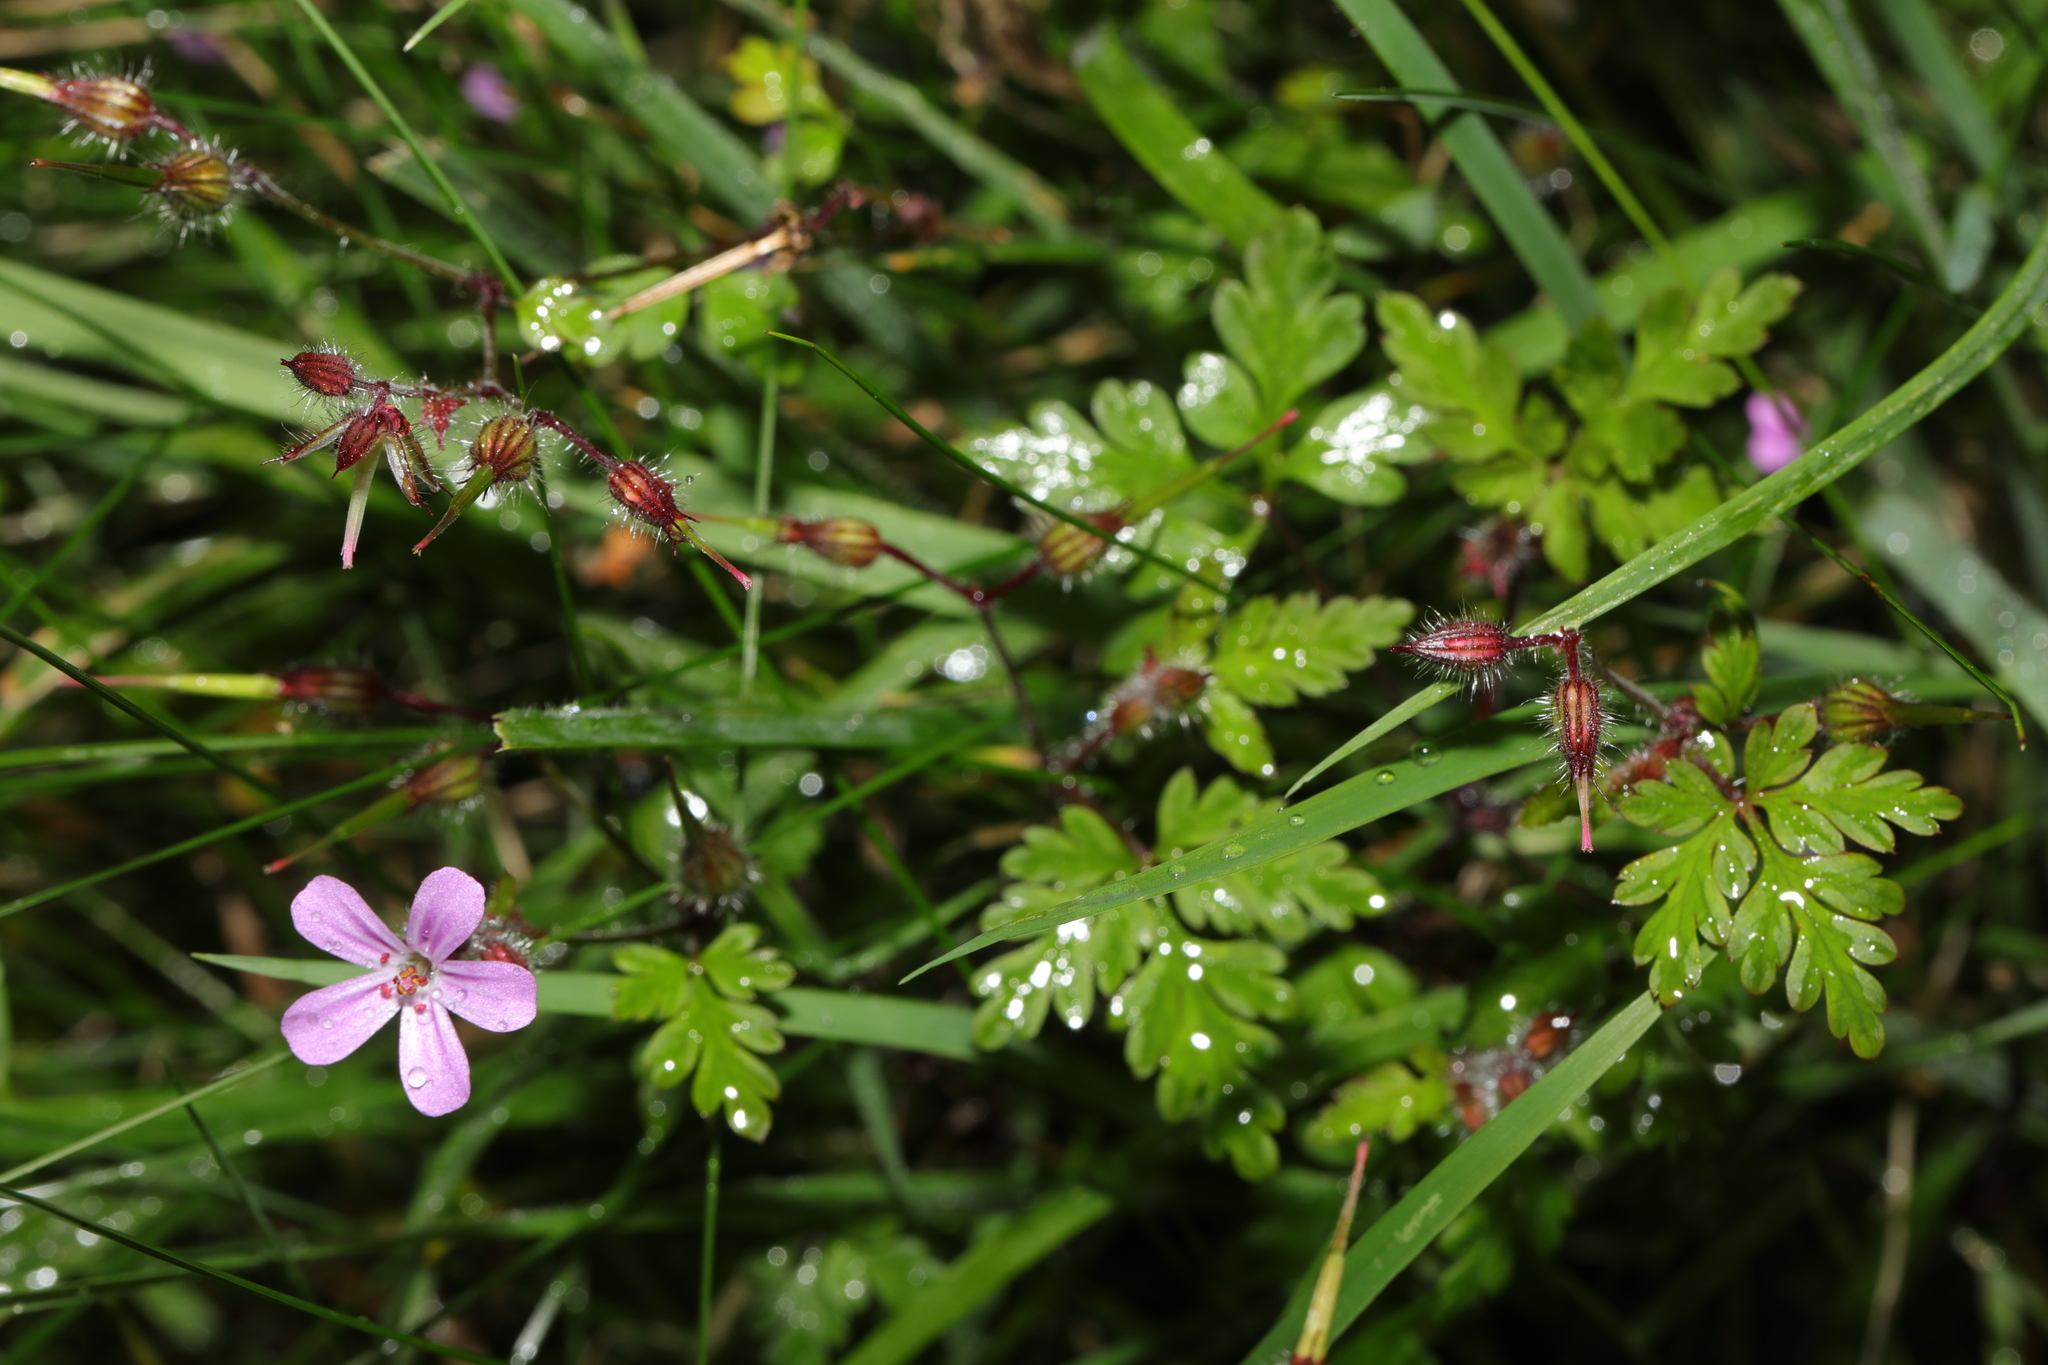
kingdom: Plantae
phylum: Tracheophyta
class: Magnoliopsida
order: Geraniales
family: Geraniaceae
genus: Geranium
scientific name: Geranium robertianum
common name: Herb-robert
